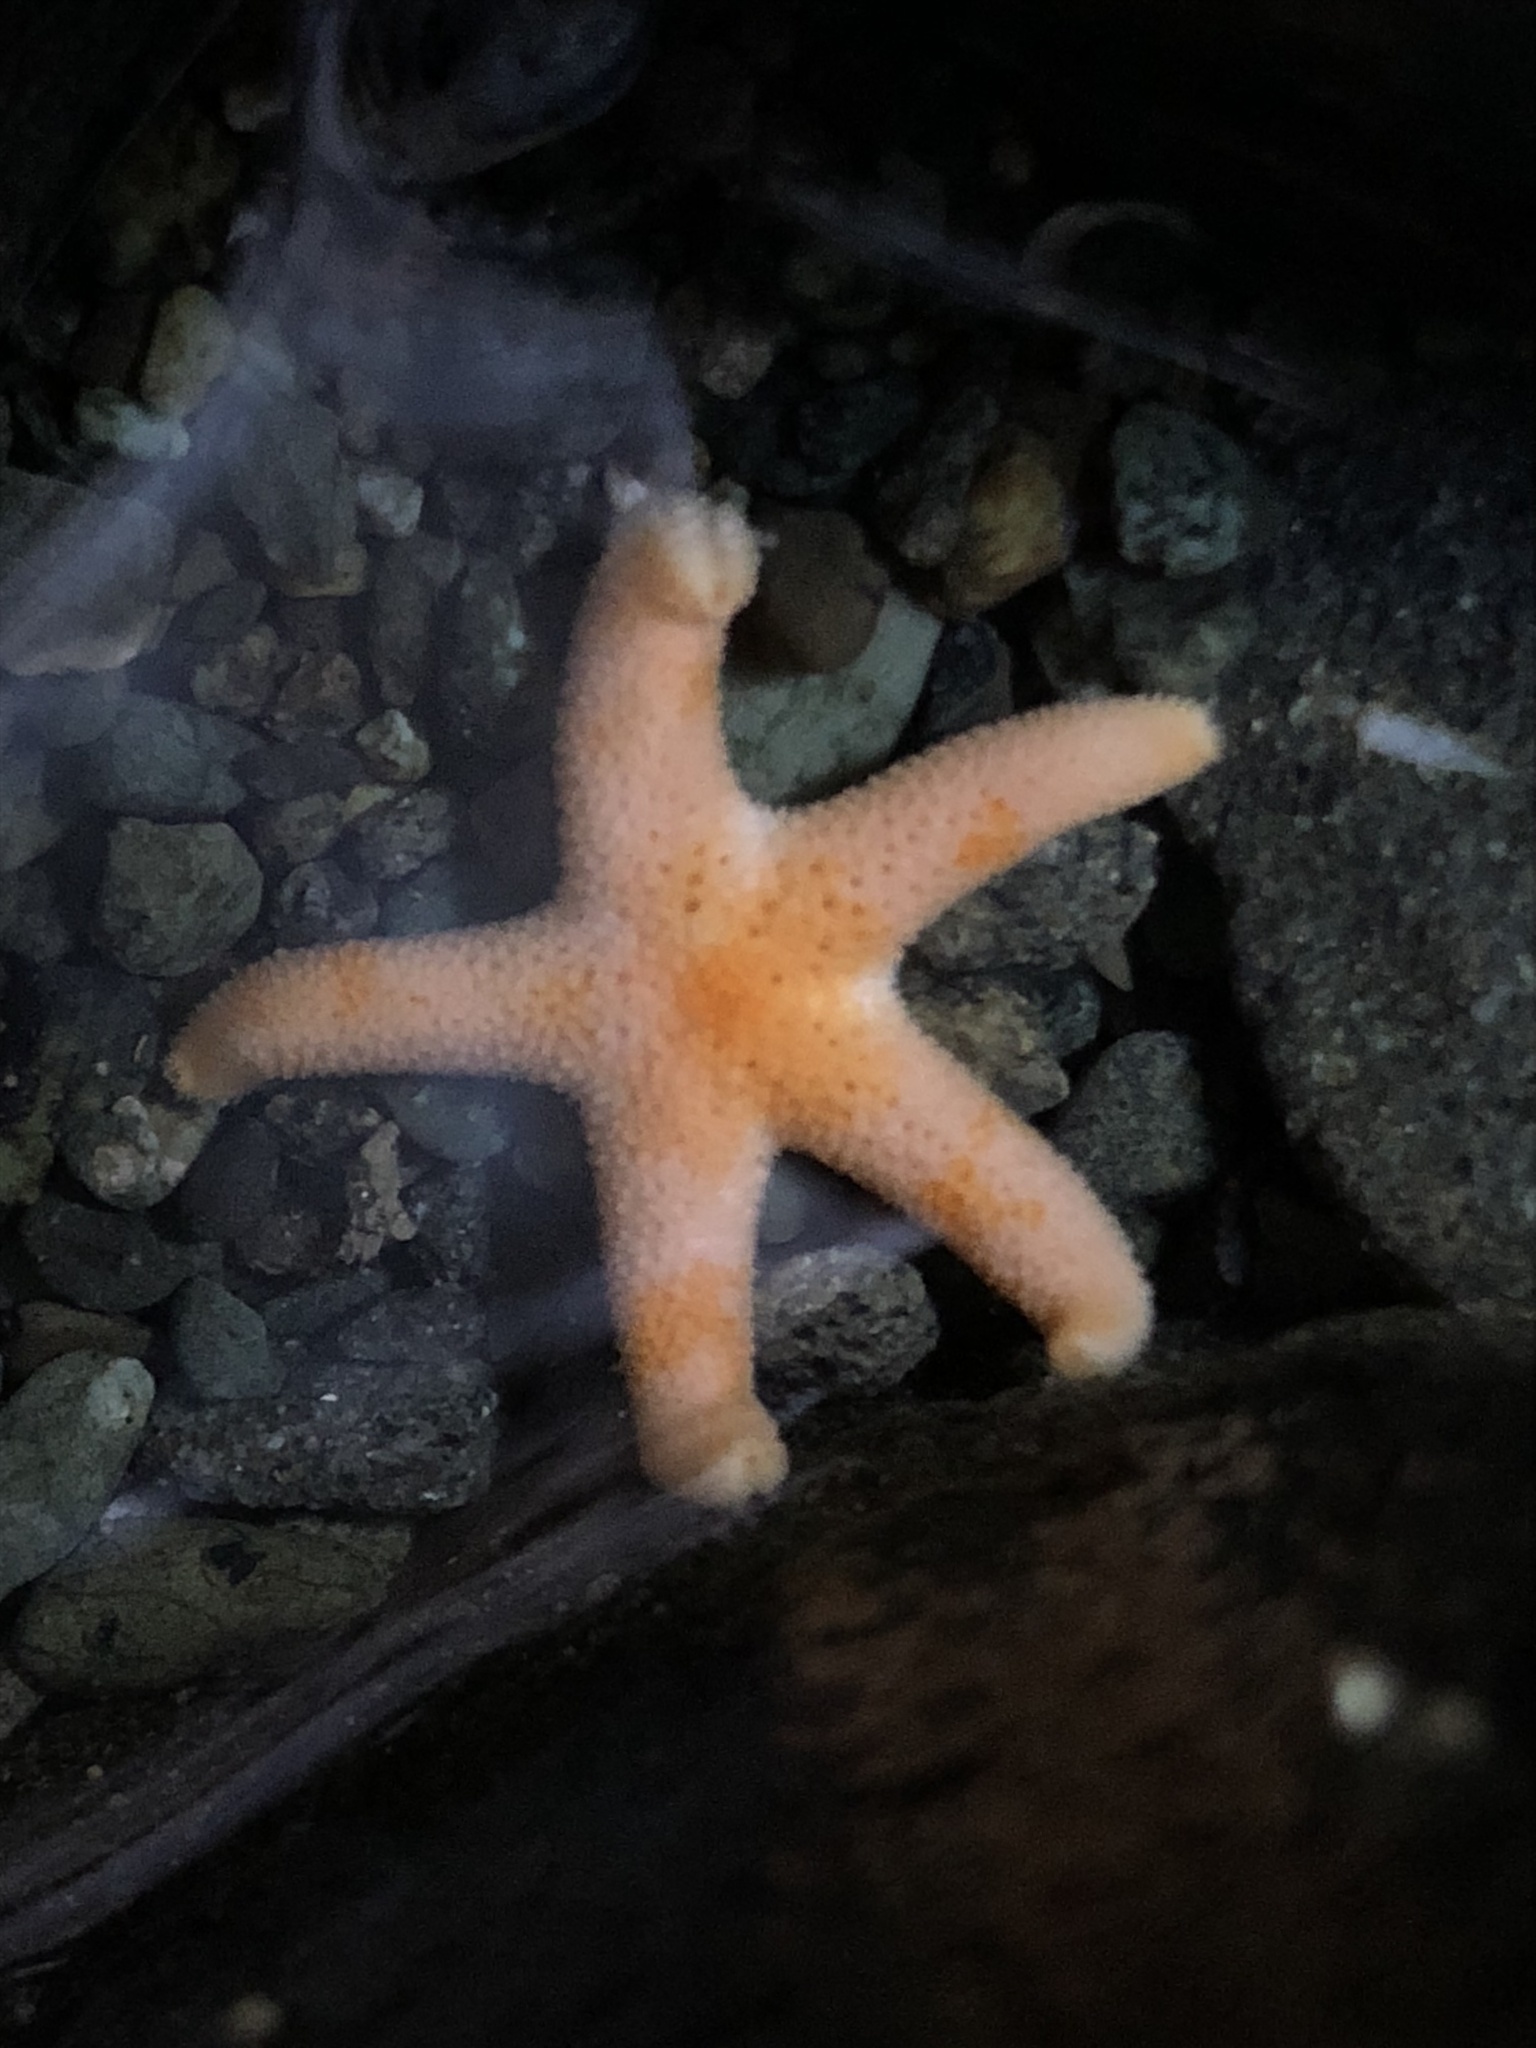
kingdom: Animalia
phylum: Echinodermata
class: Asteroidea
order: Spinulosida
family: Echinasteridae
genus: Henricia
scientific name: Henricia pumila
